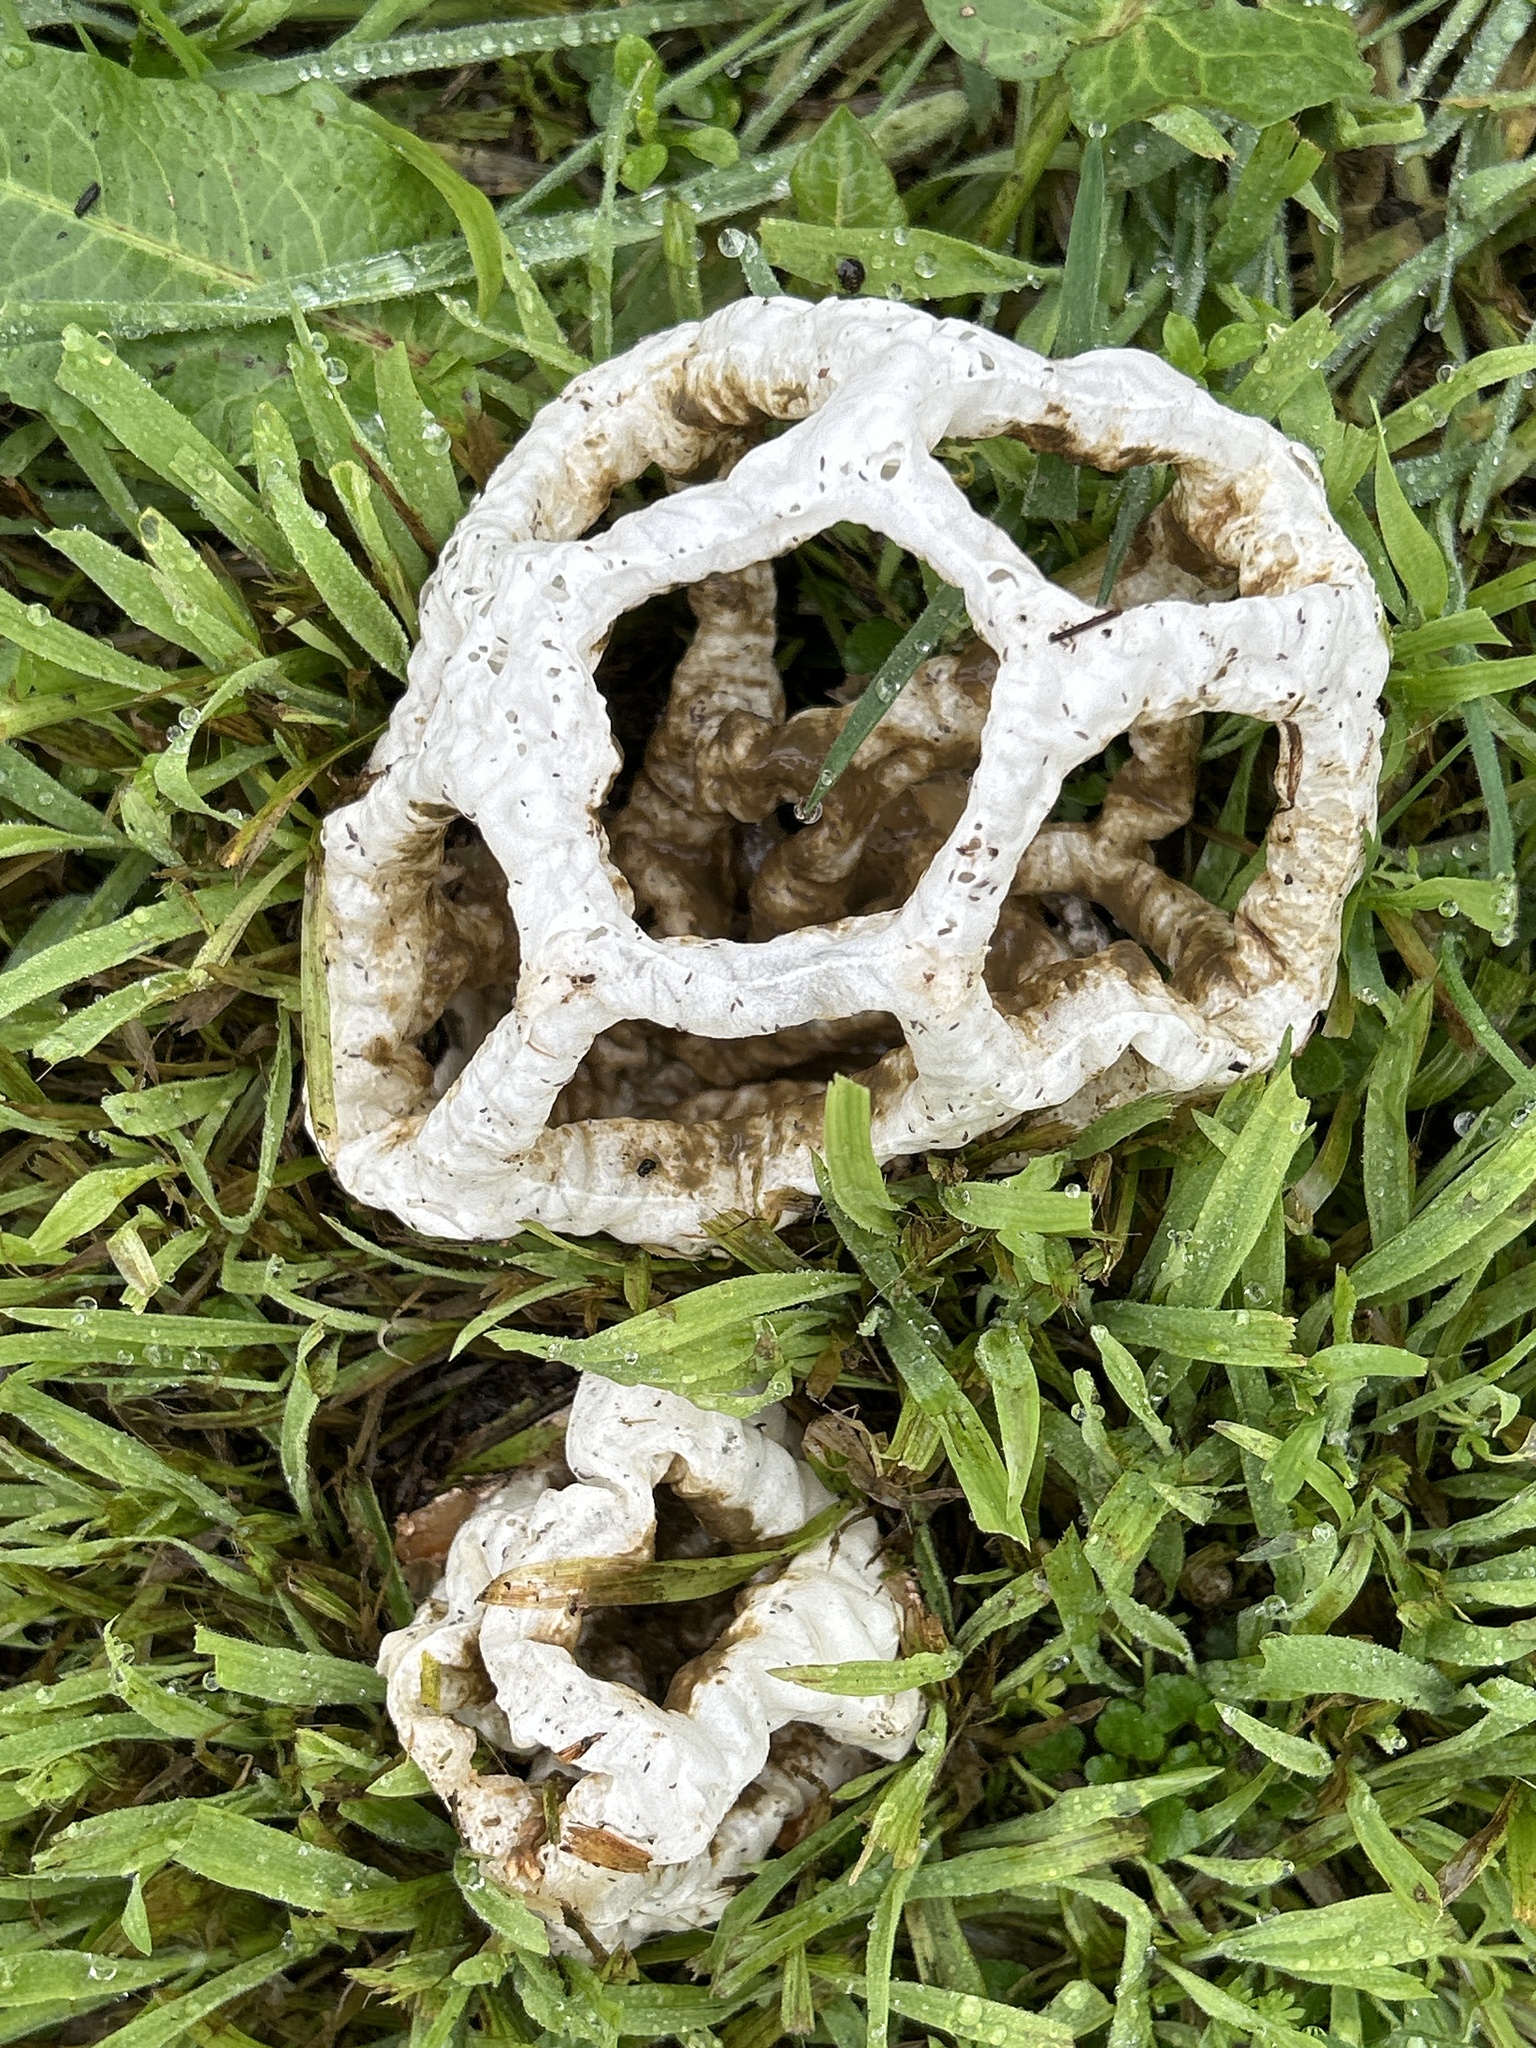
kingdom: Fungi
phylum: Basidiomycota
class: Agaricomycetes
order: Phallales
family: Phallaceae
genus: Ileodictyon
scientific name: Ileodictyon cibarium
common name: Basket fungus
